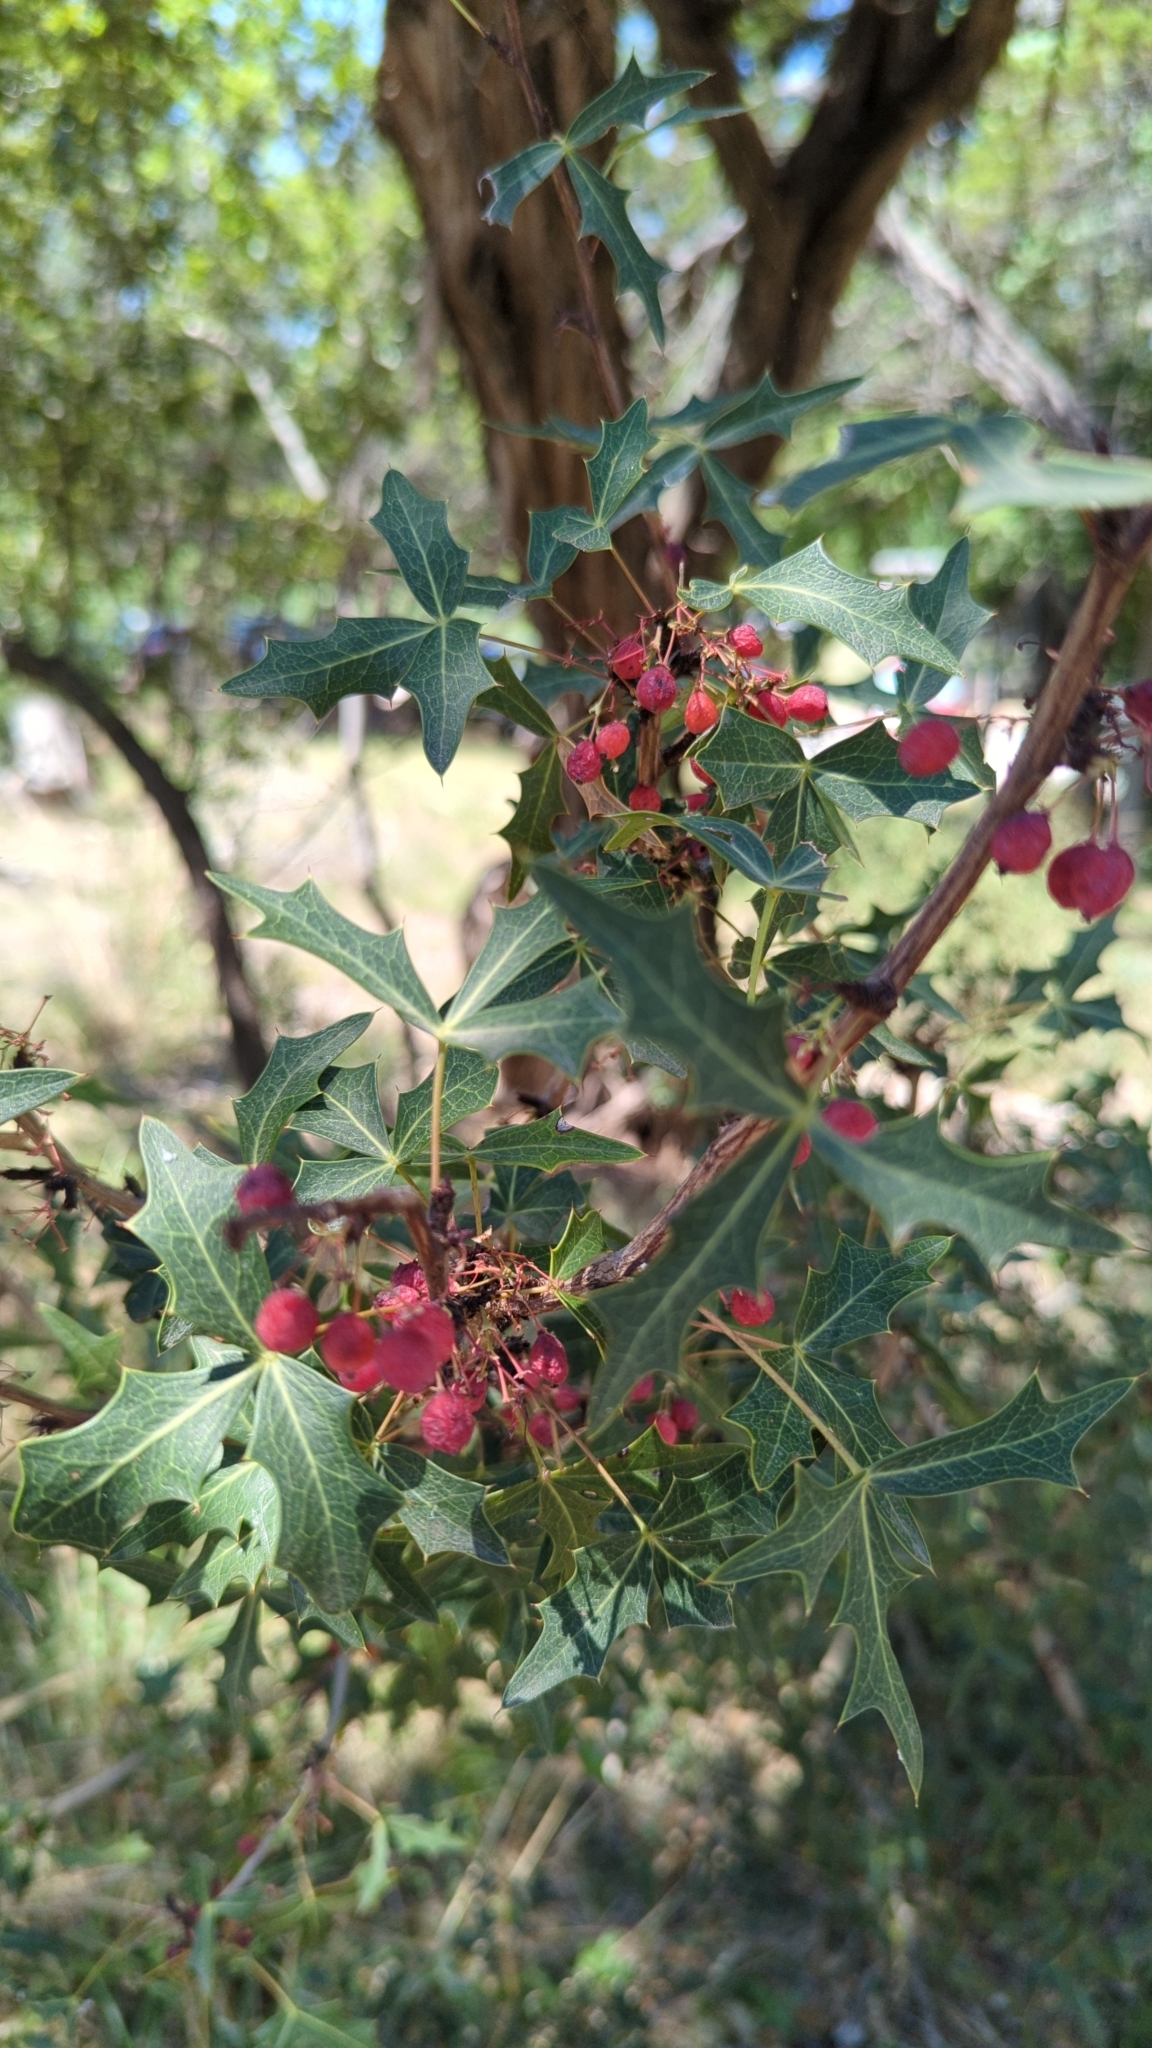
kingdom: Plantae
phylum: Tracheophyta
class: Magnoliopsida
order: Ranunculales
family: Berberidaceae
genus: Alloberberis
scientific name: Alloberberis trifoliolata
